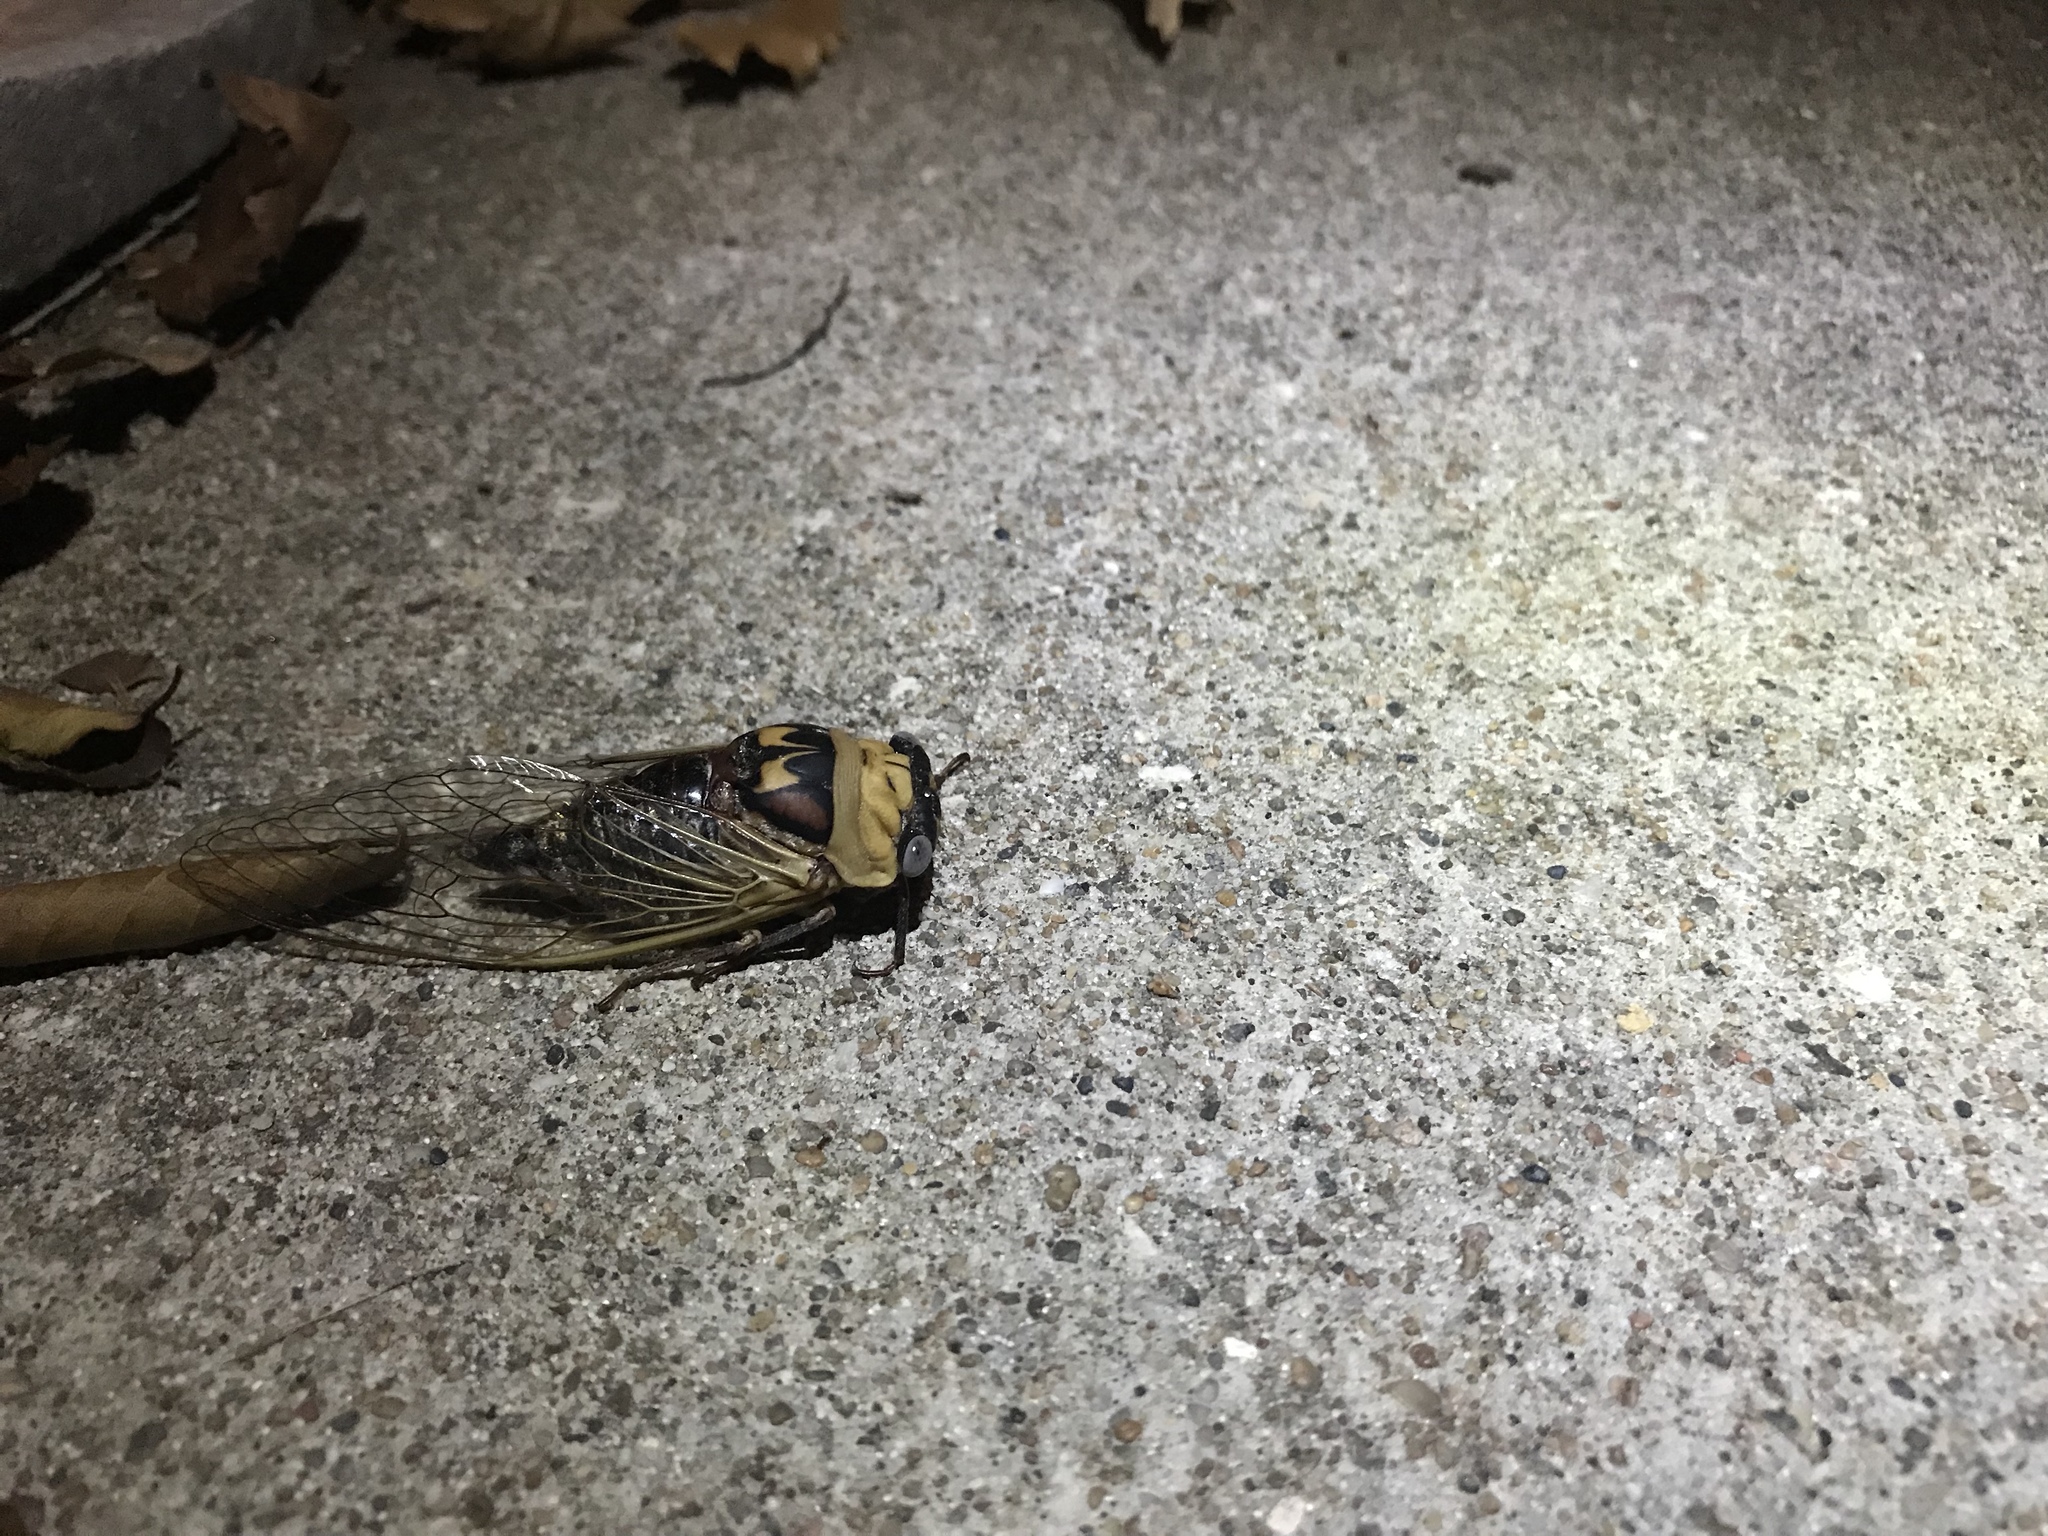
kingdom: Animalia
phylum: Arthropoda
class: Insecta
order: Hemiptera
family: Cicadidae
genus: Megatibicen
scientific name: Megatibicen pronotalis
